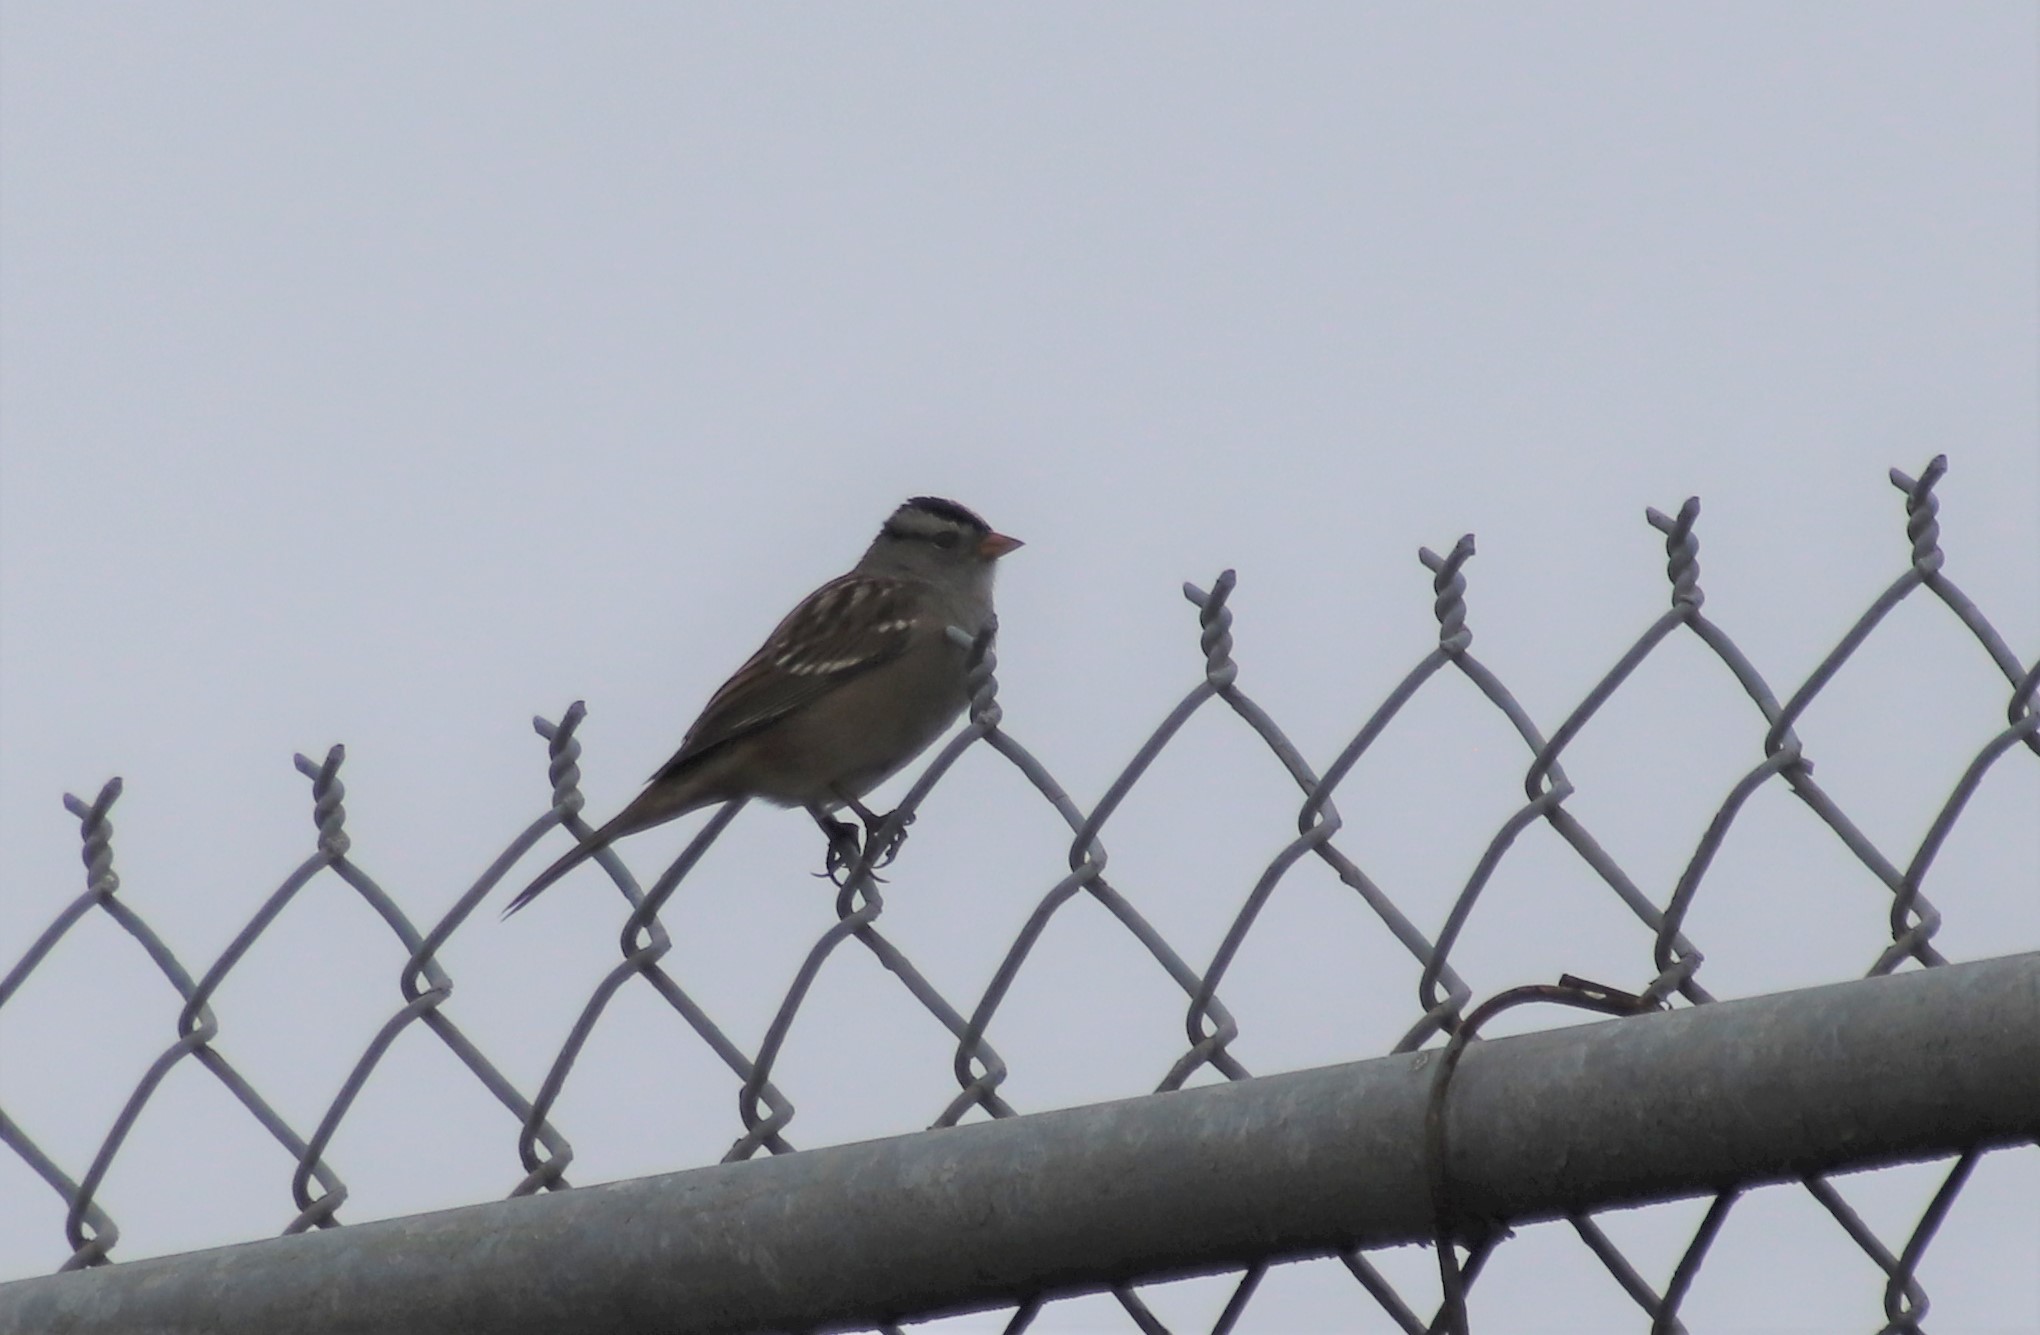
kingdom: Animalia
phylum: Chordata
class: Aves
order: Passeriformes
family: Passerellidae
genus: Zonotrichia
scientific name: Zonotrichia leucophrys
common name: White-crowned sparrow
